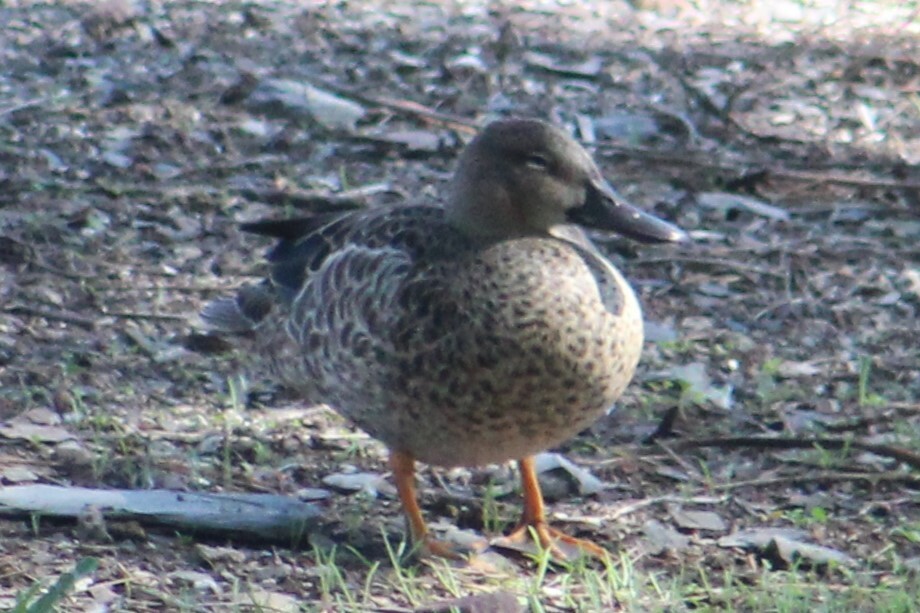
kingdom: Animalia
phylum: Chordata
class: Aves
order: Anseriformes
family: Anatidae
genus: Spatula
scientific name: Spatula discors
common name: Blue-winged teal
